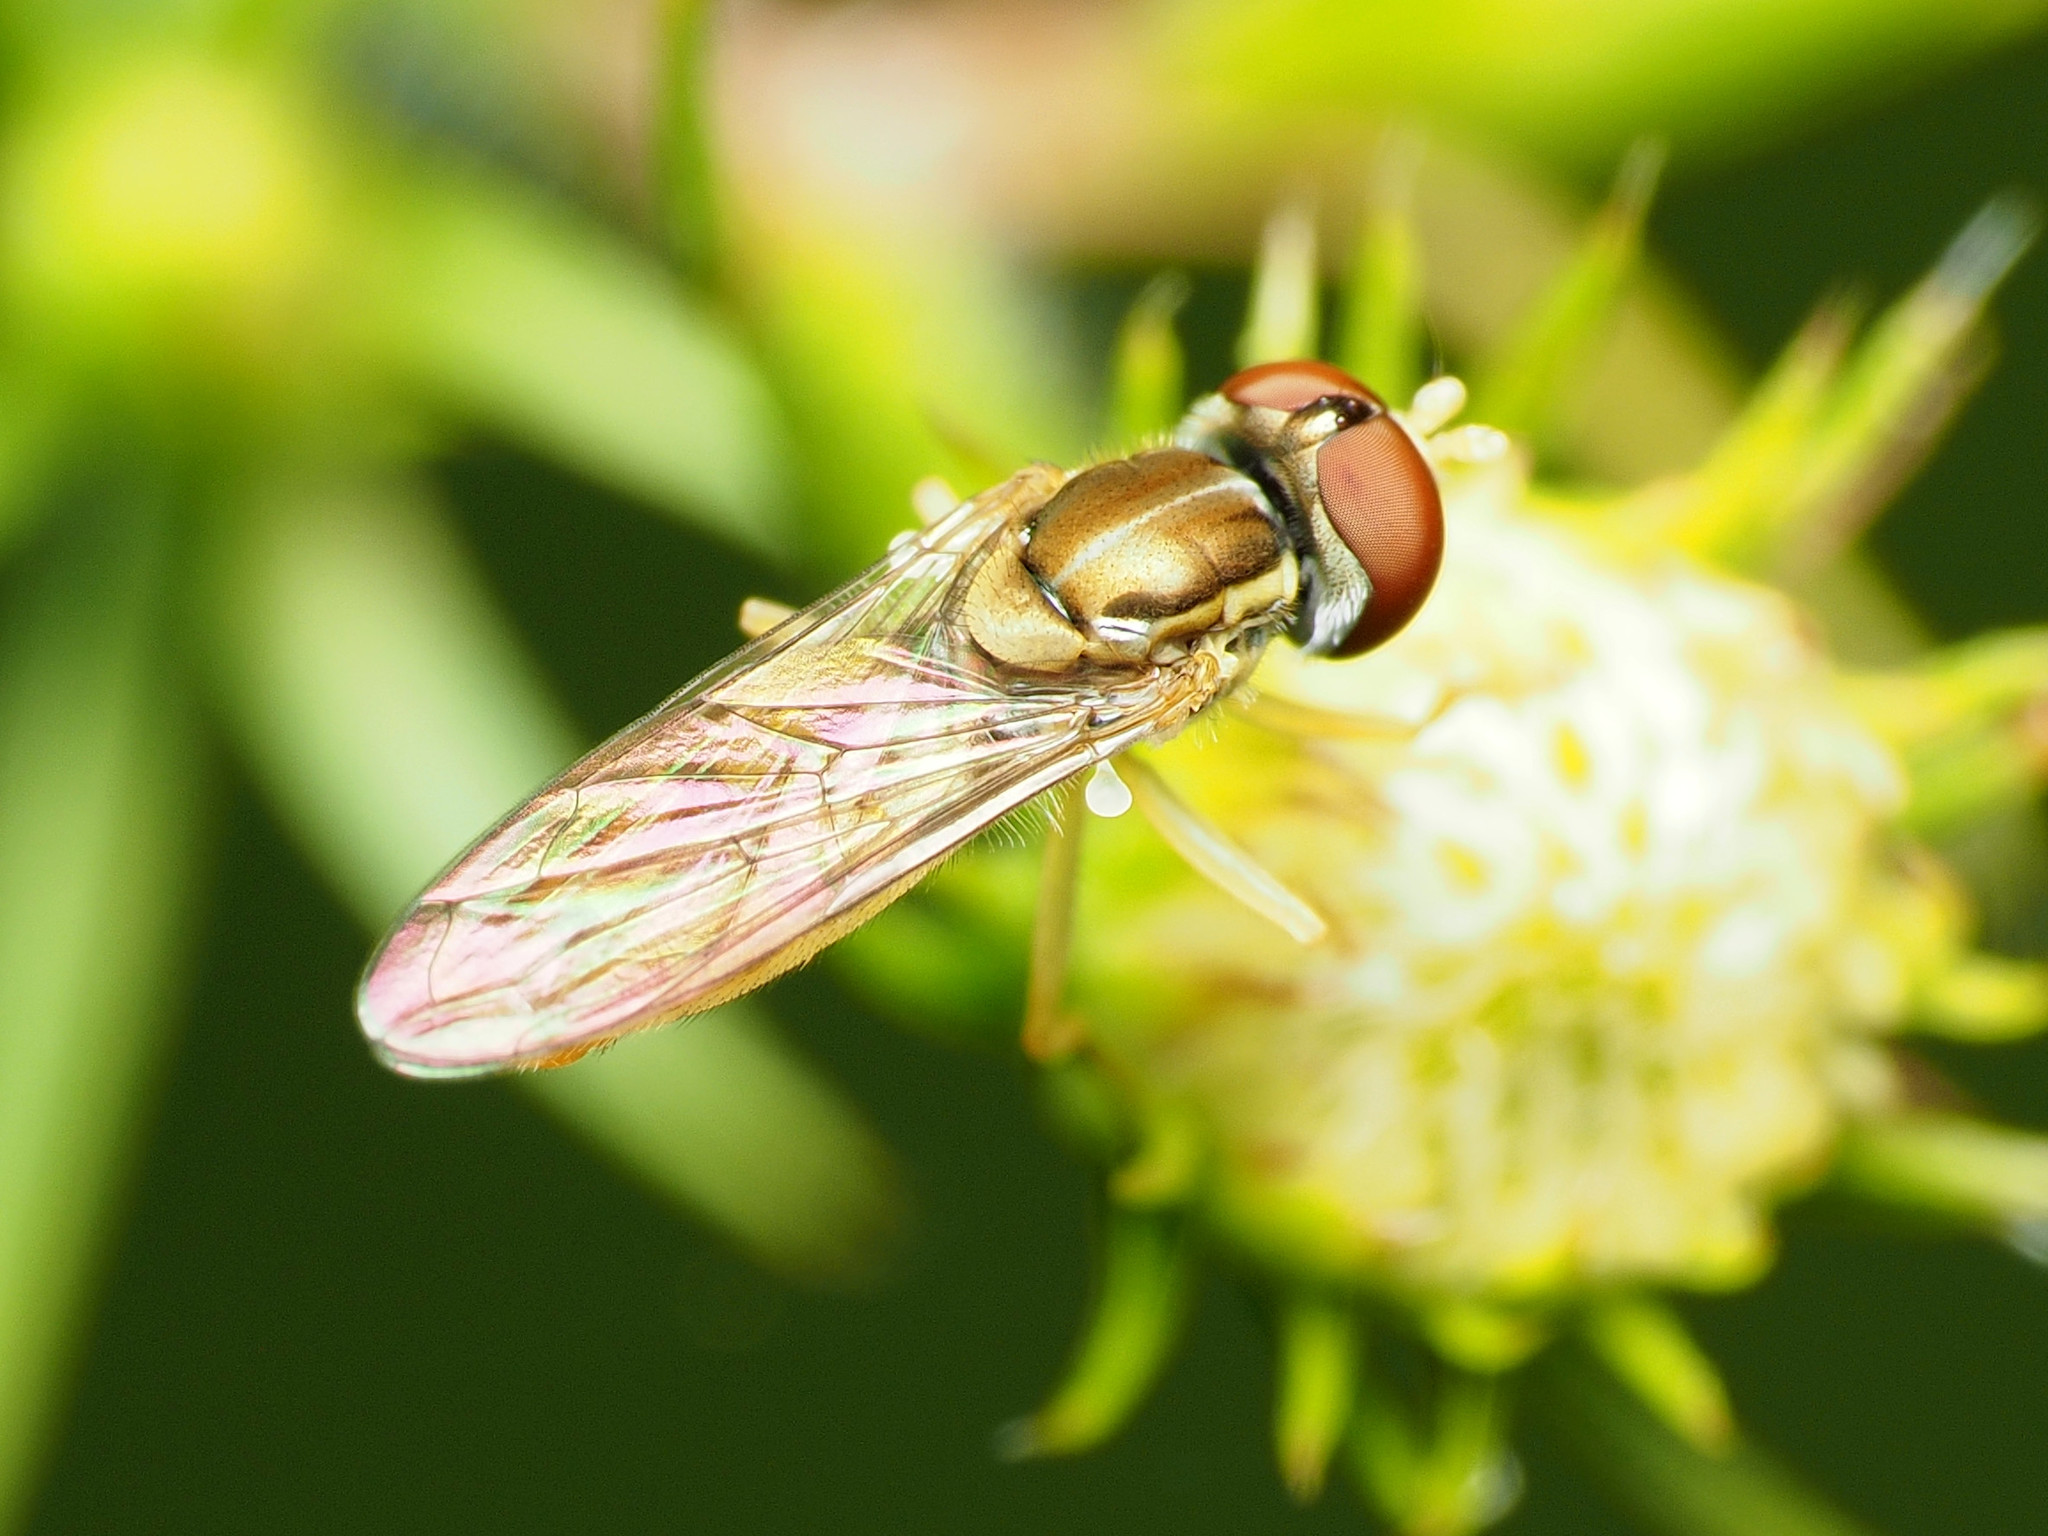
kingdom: Animalia
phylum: Arthropoda
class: Insecta
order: Diptera
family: Syrphidae
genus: Toxomerus
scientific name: Toxomerus marginatus
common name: Syrphid fly
